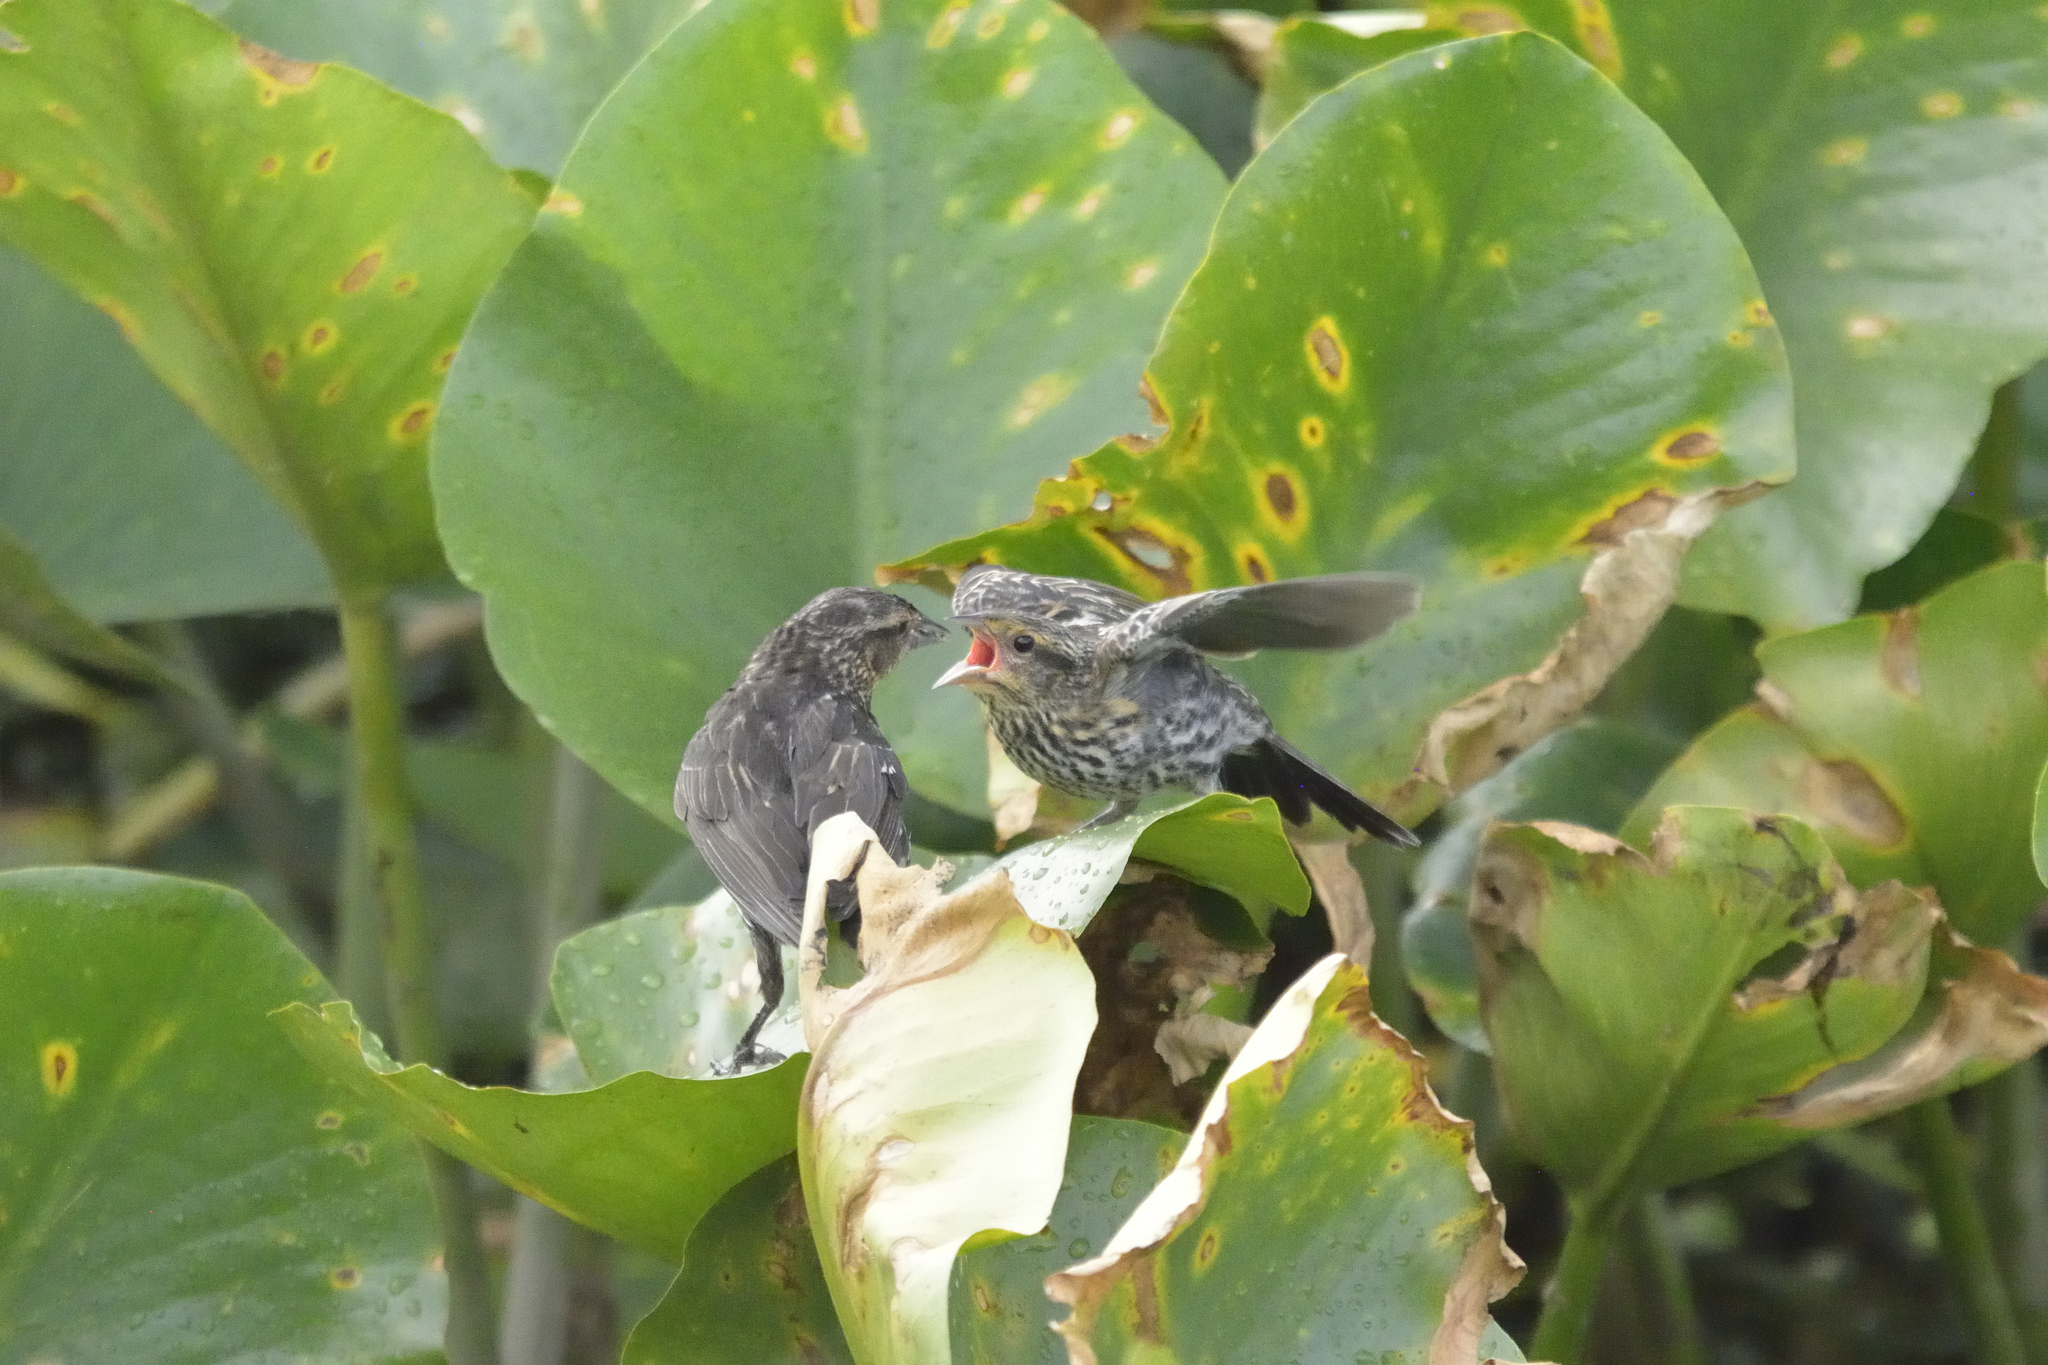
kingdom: Animalia
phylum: Chordata
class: Aves
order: Passeriformes
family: Icteridae
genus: Agelaius
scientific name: Agelaius phoeniceus
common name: Red-winged blackbird
